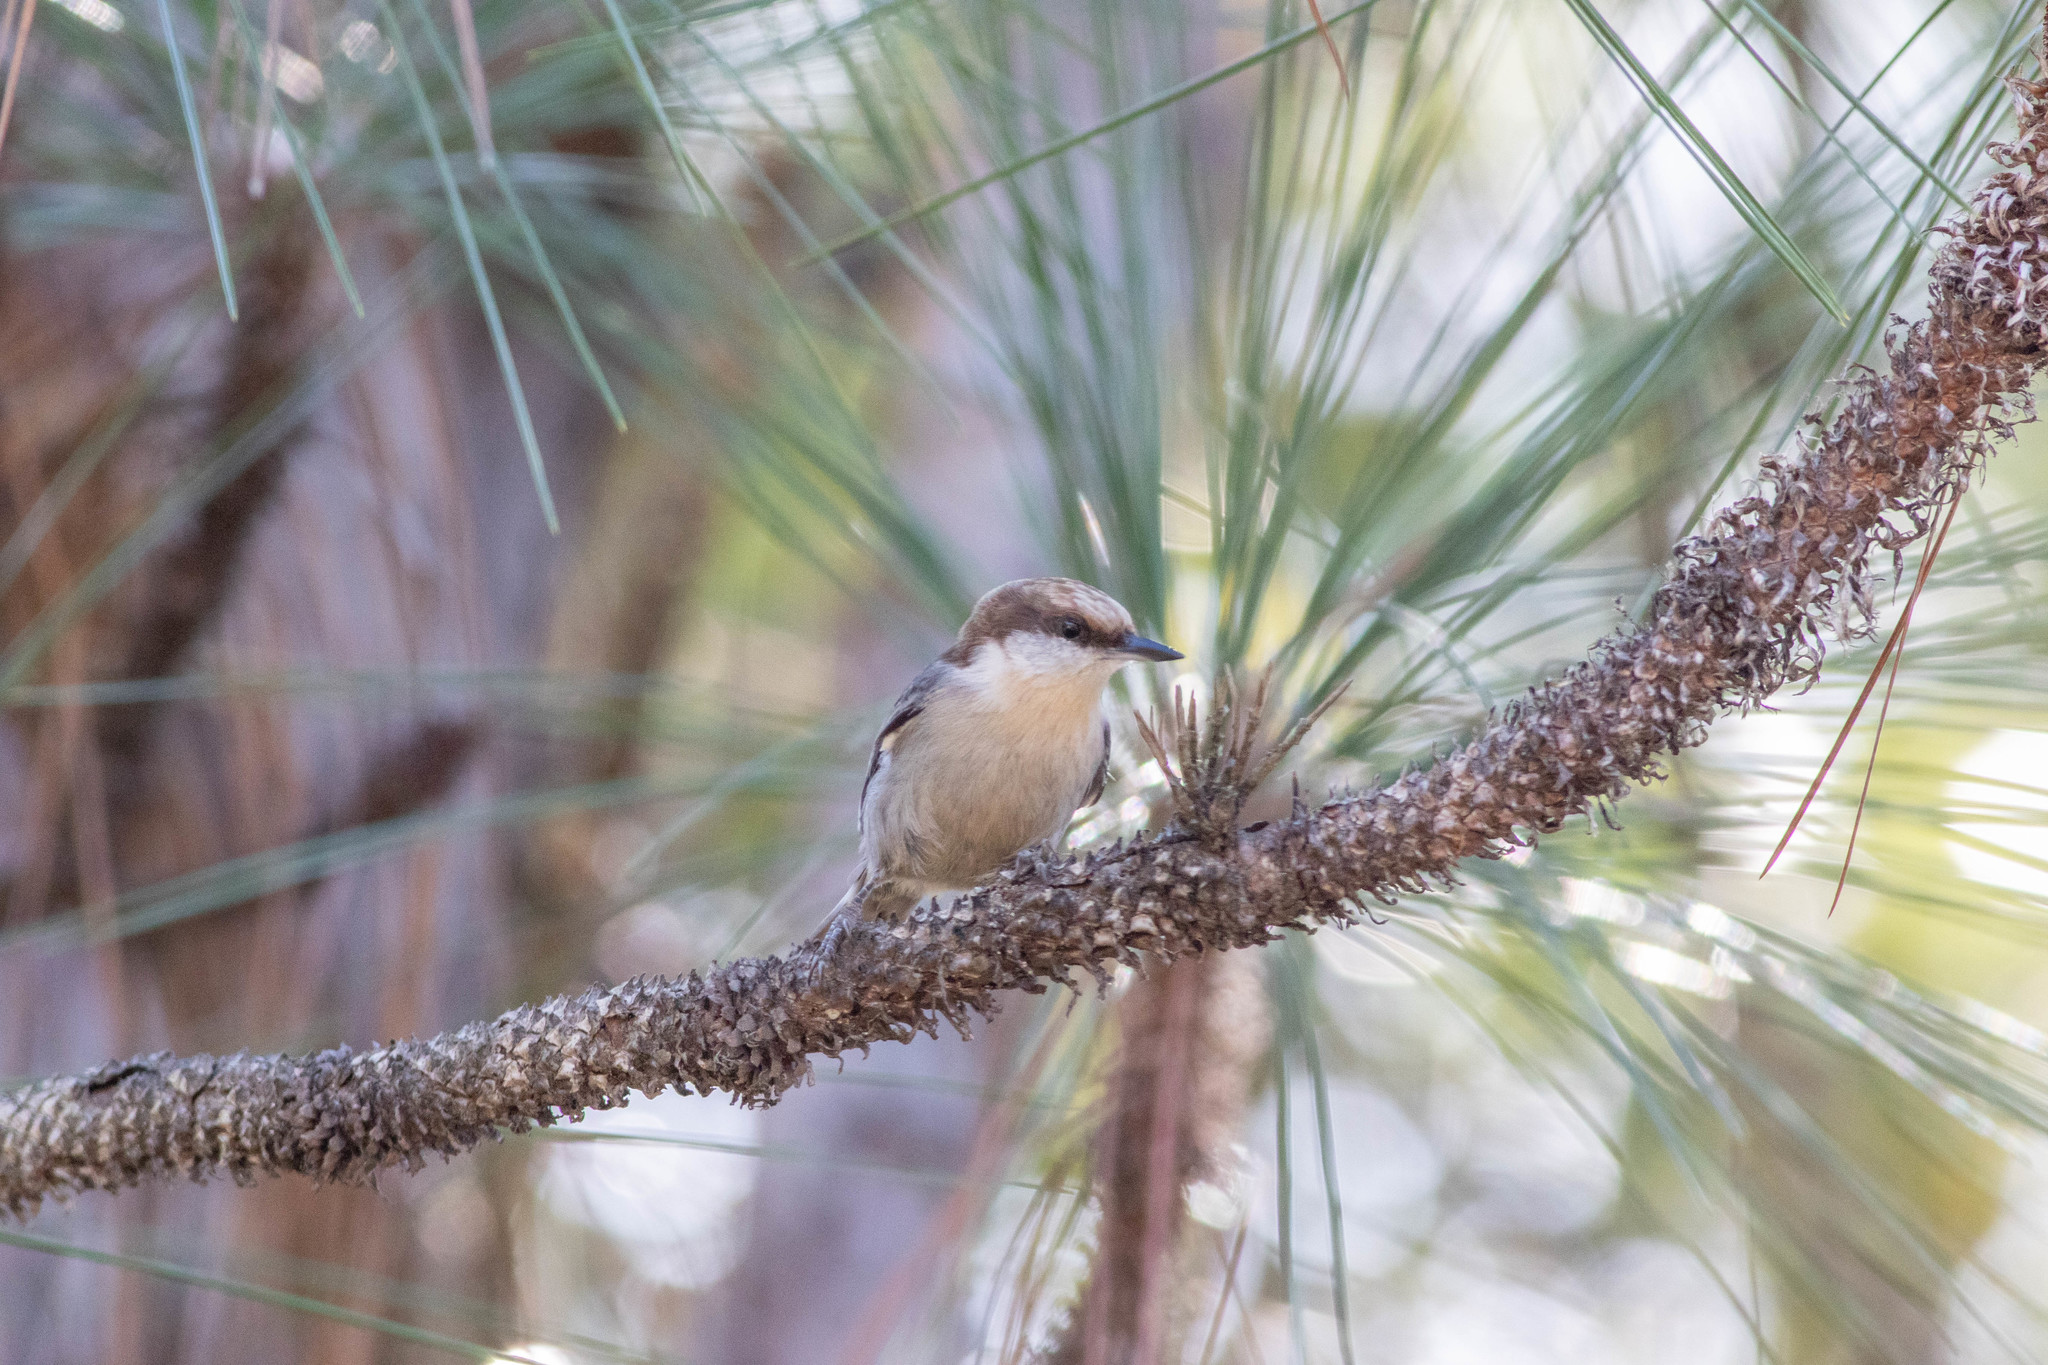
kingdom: Animalia
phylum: Chordata
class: Aves
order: Passeriformes
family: Sittidae
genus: Sitta
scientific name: Sitta pusilla
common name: Brown-headed nuthatch
